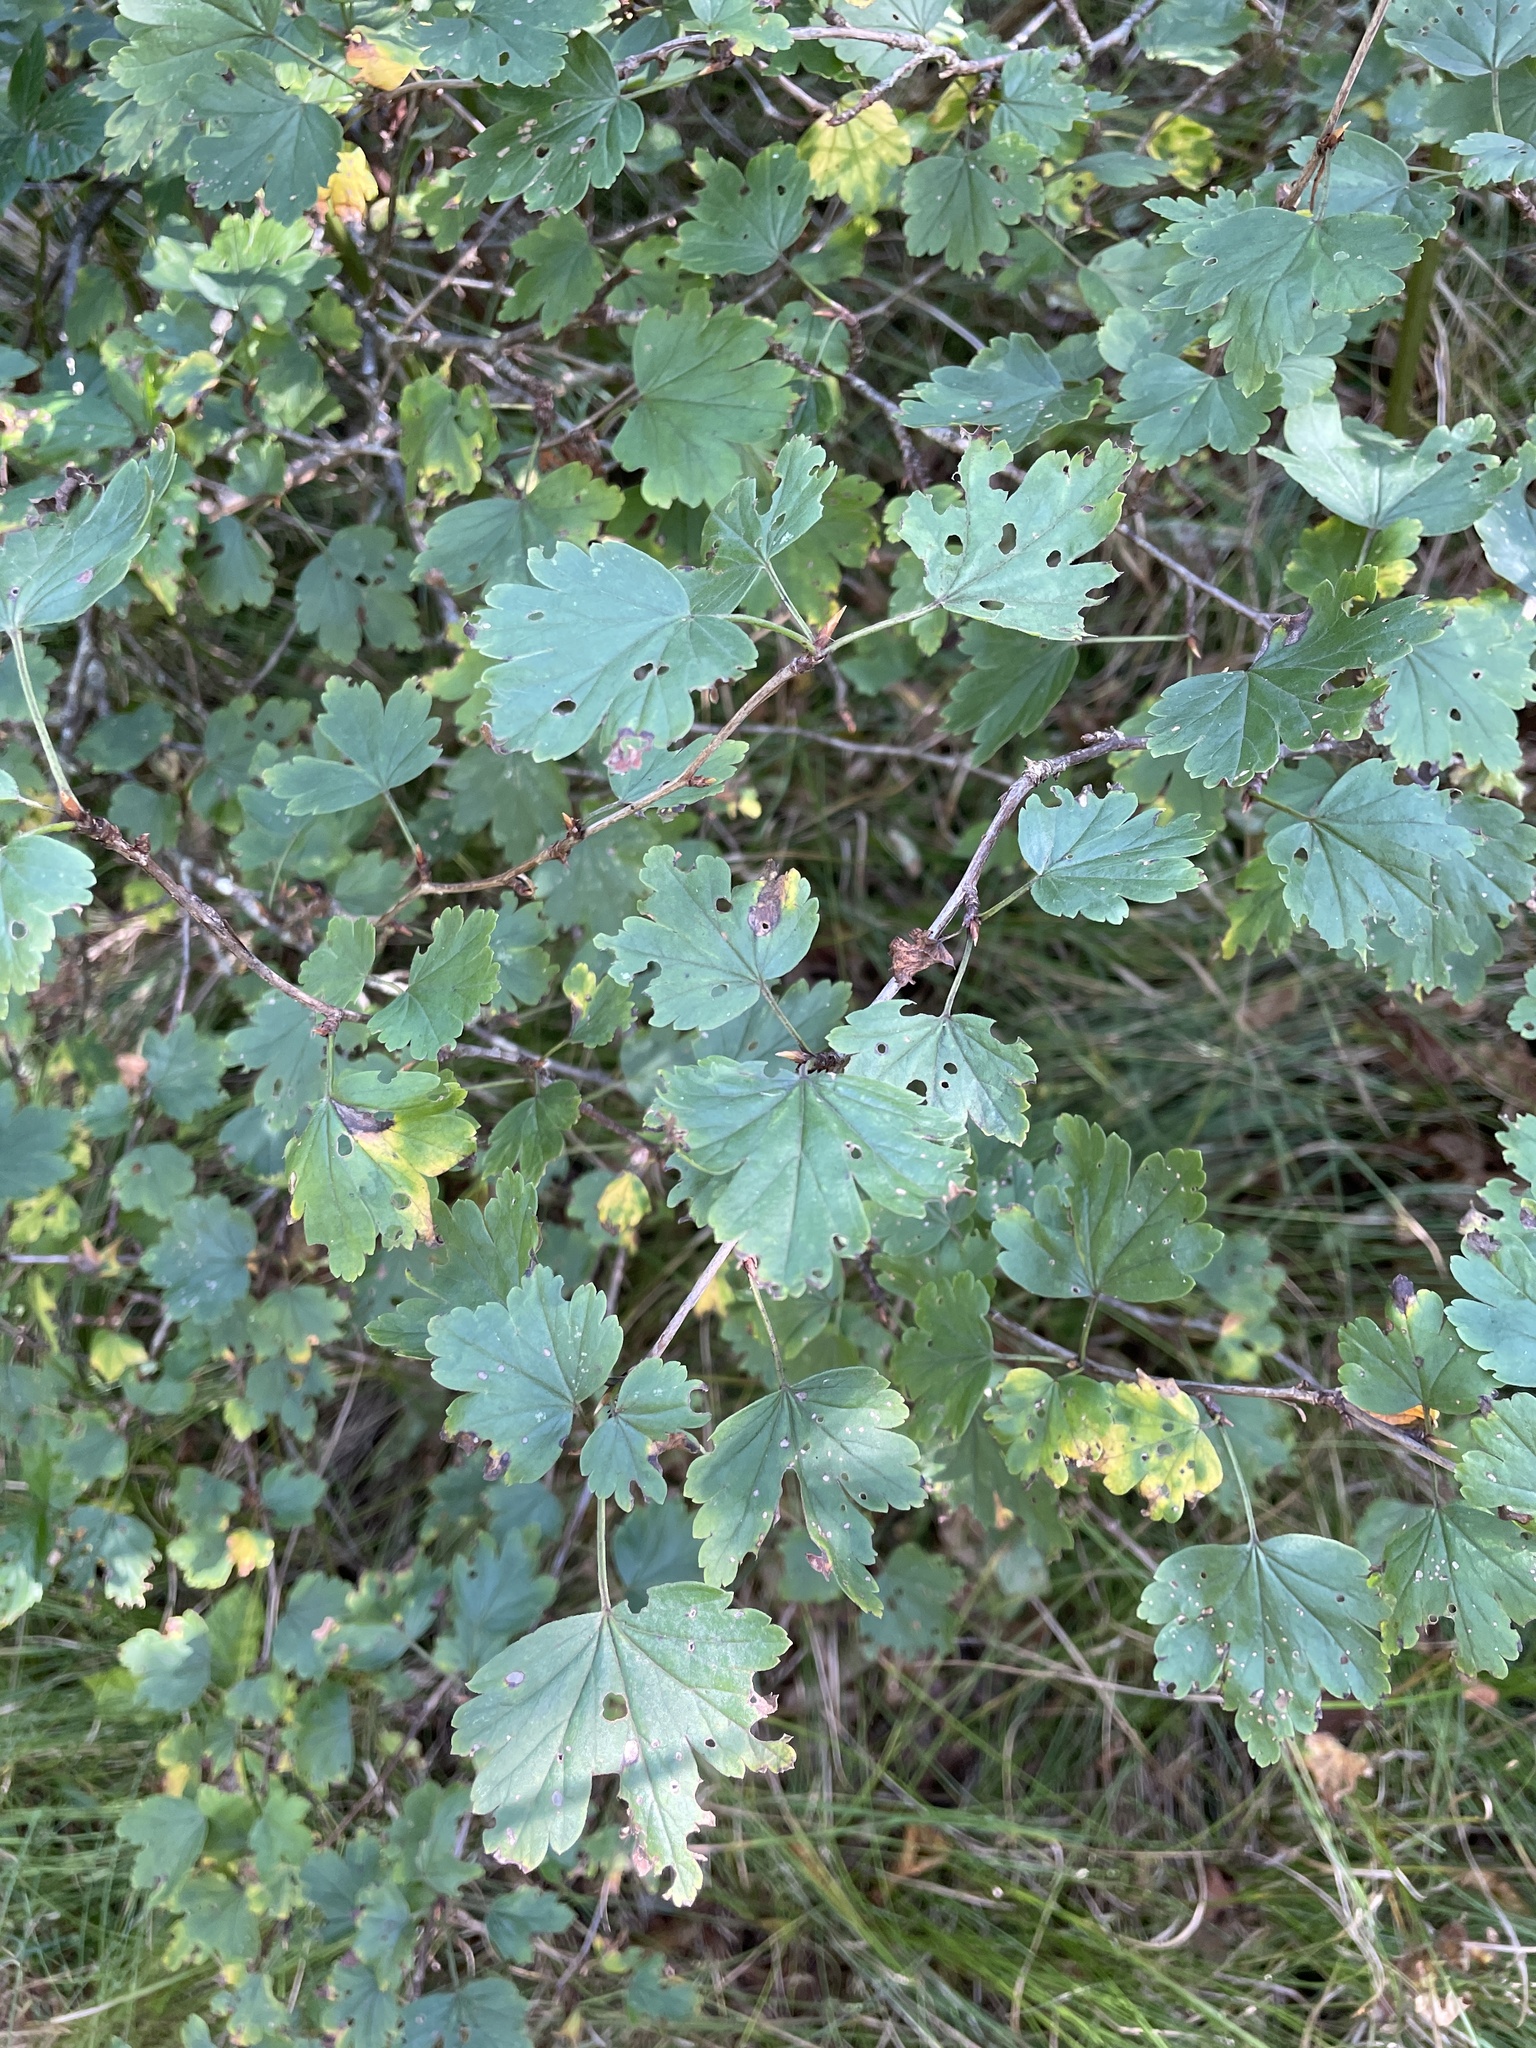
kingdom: Plantae
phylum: Tracheophyta
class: Magnoliopsida
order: Saxifragales
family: Grossulariaceae
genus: Ribes
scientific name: Ribes glandulosum
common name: Skunk currant
